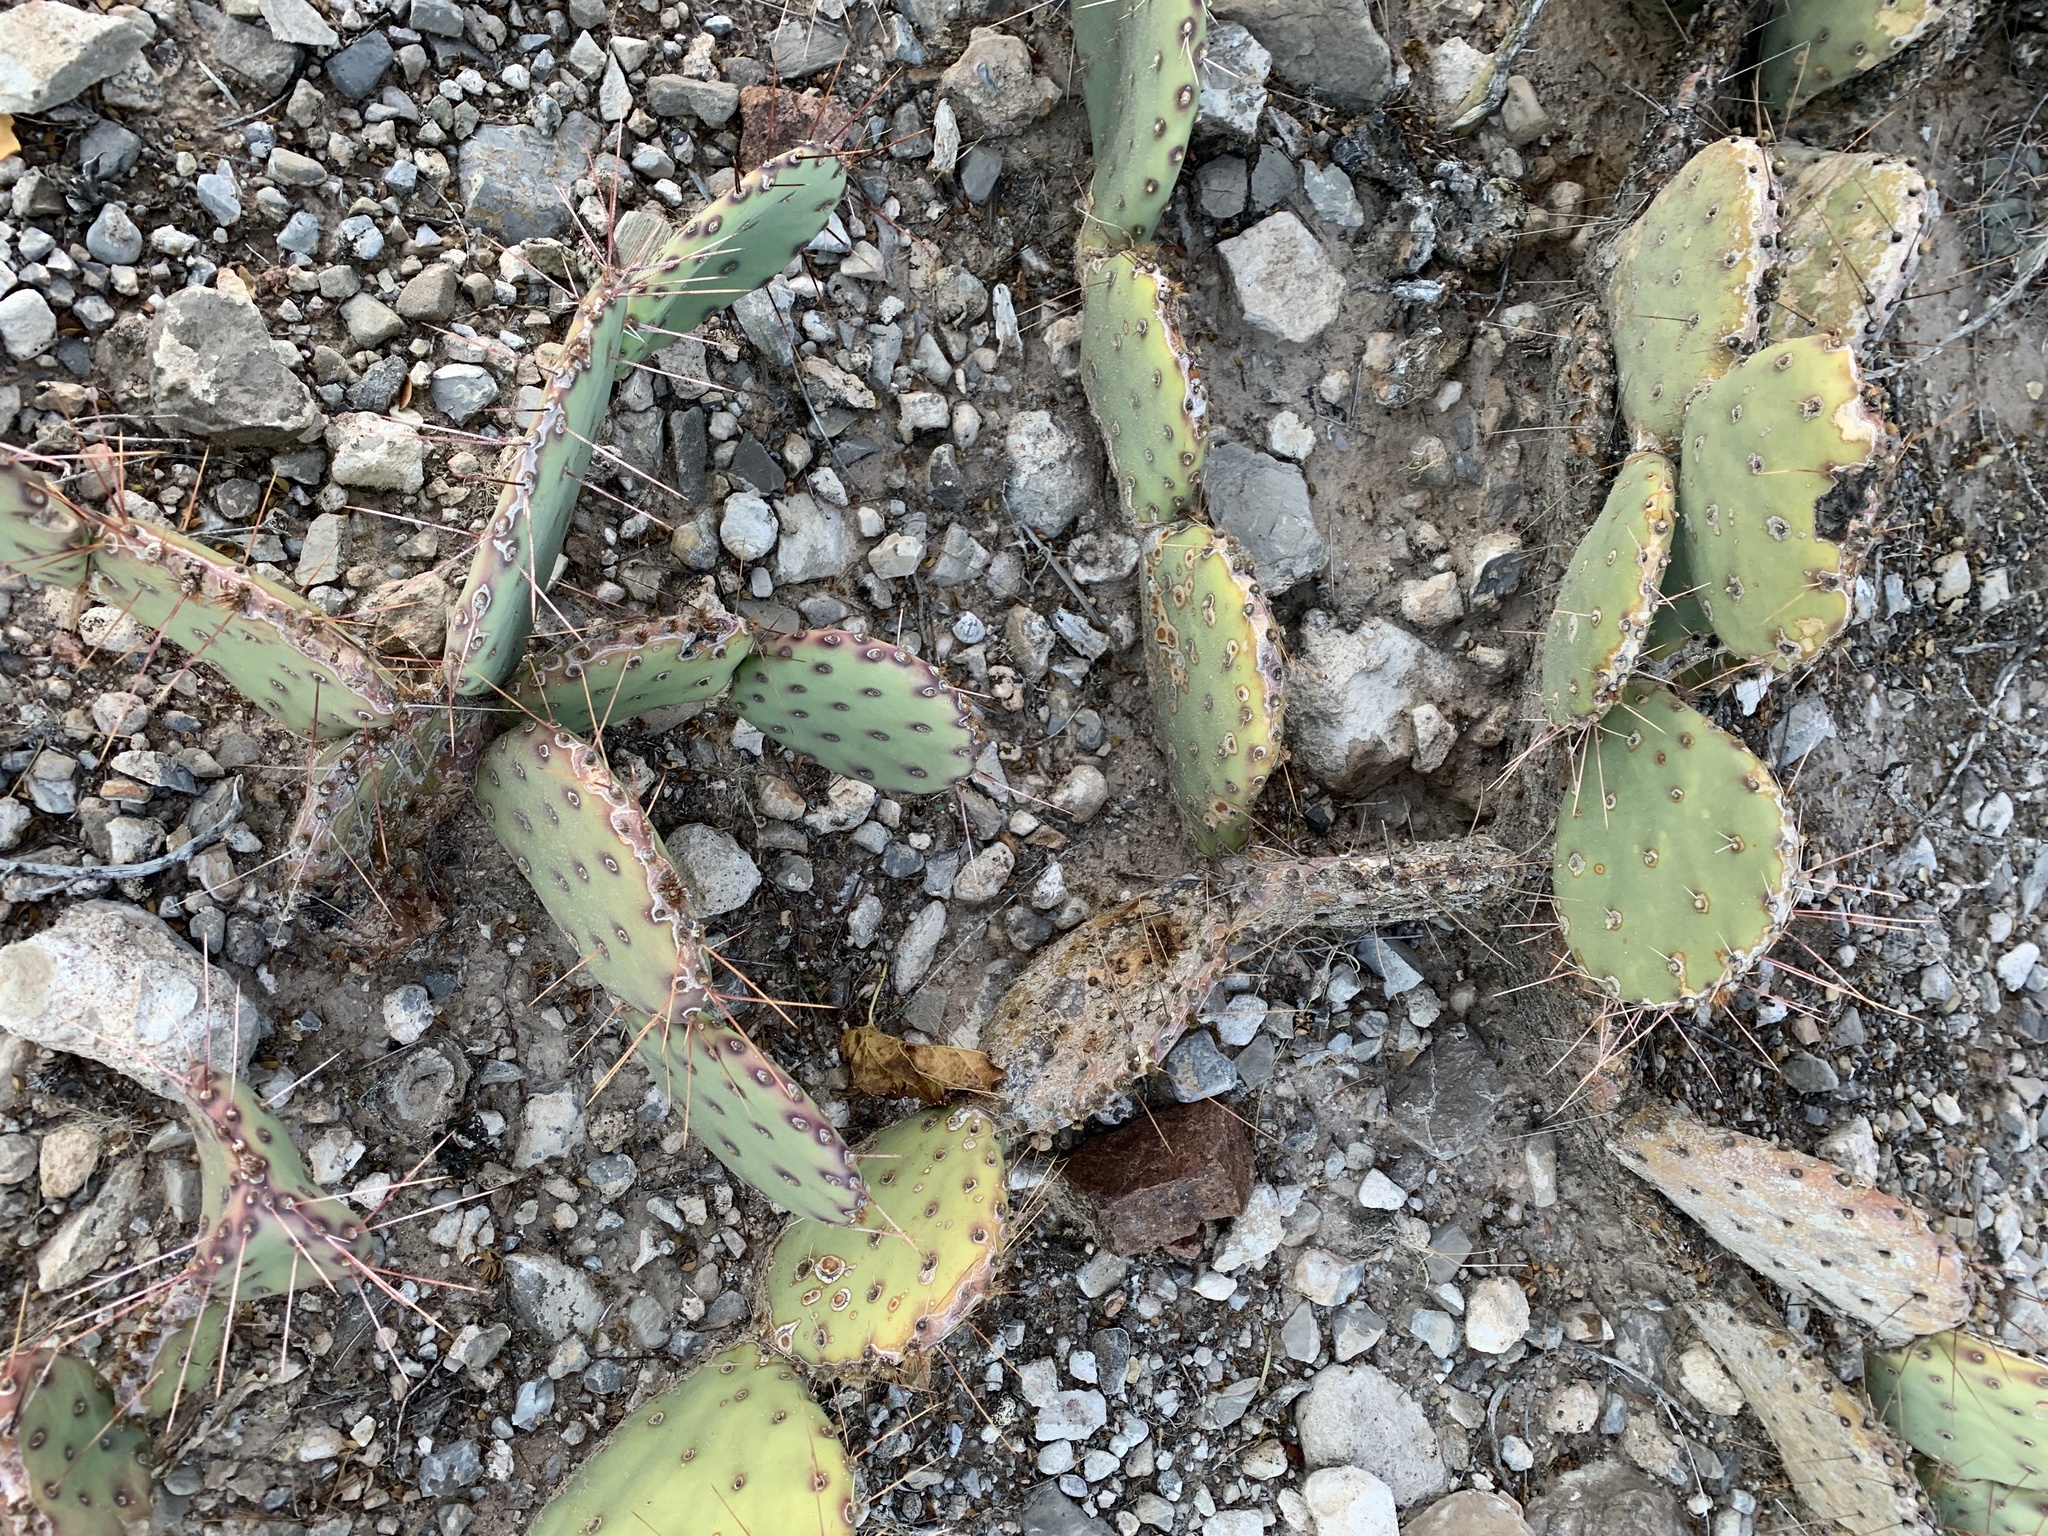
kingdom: Plantae
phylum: Tracheophyta
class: Magnoliopsida
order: Caryophyllales
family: Cactaceae
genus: Opuntia
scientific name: Opuntia phaeacantha
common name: New mexico prickly-pear
